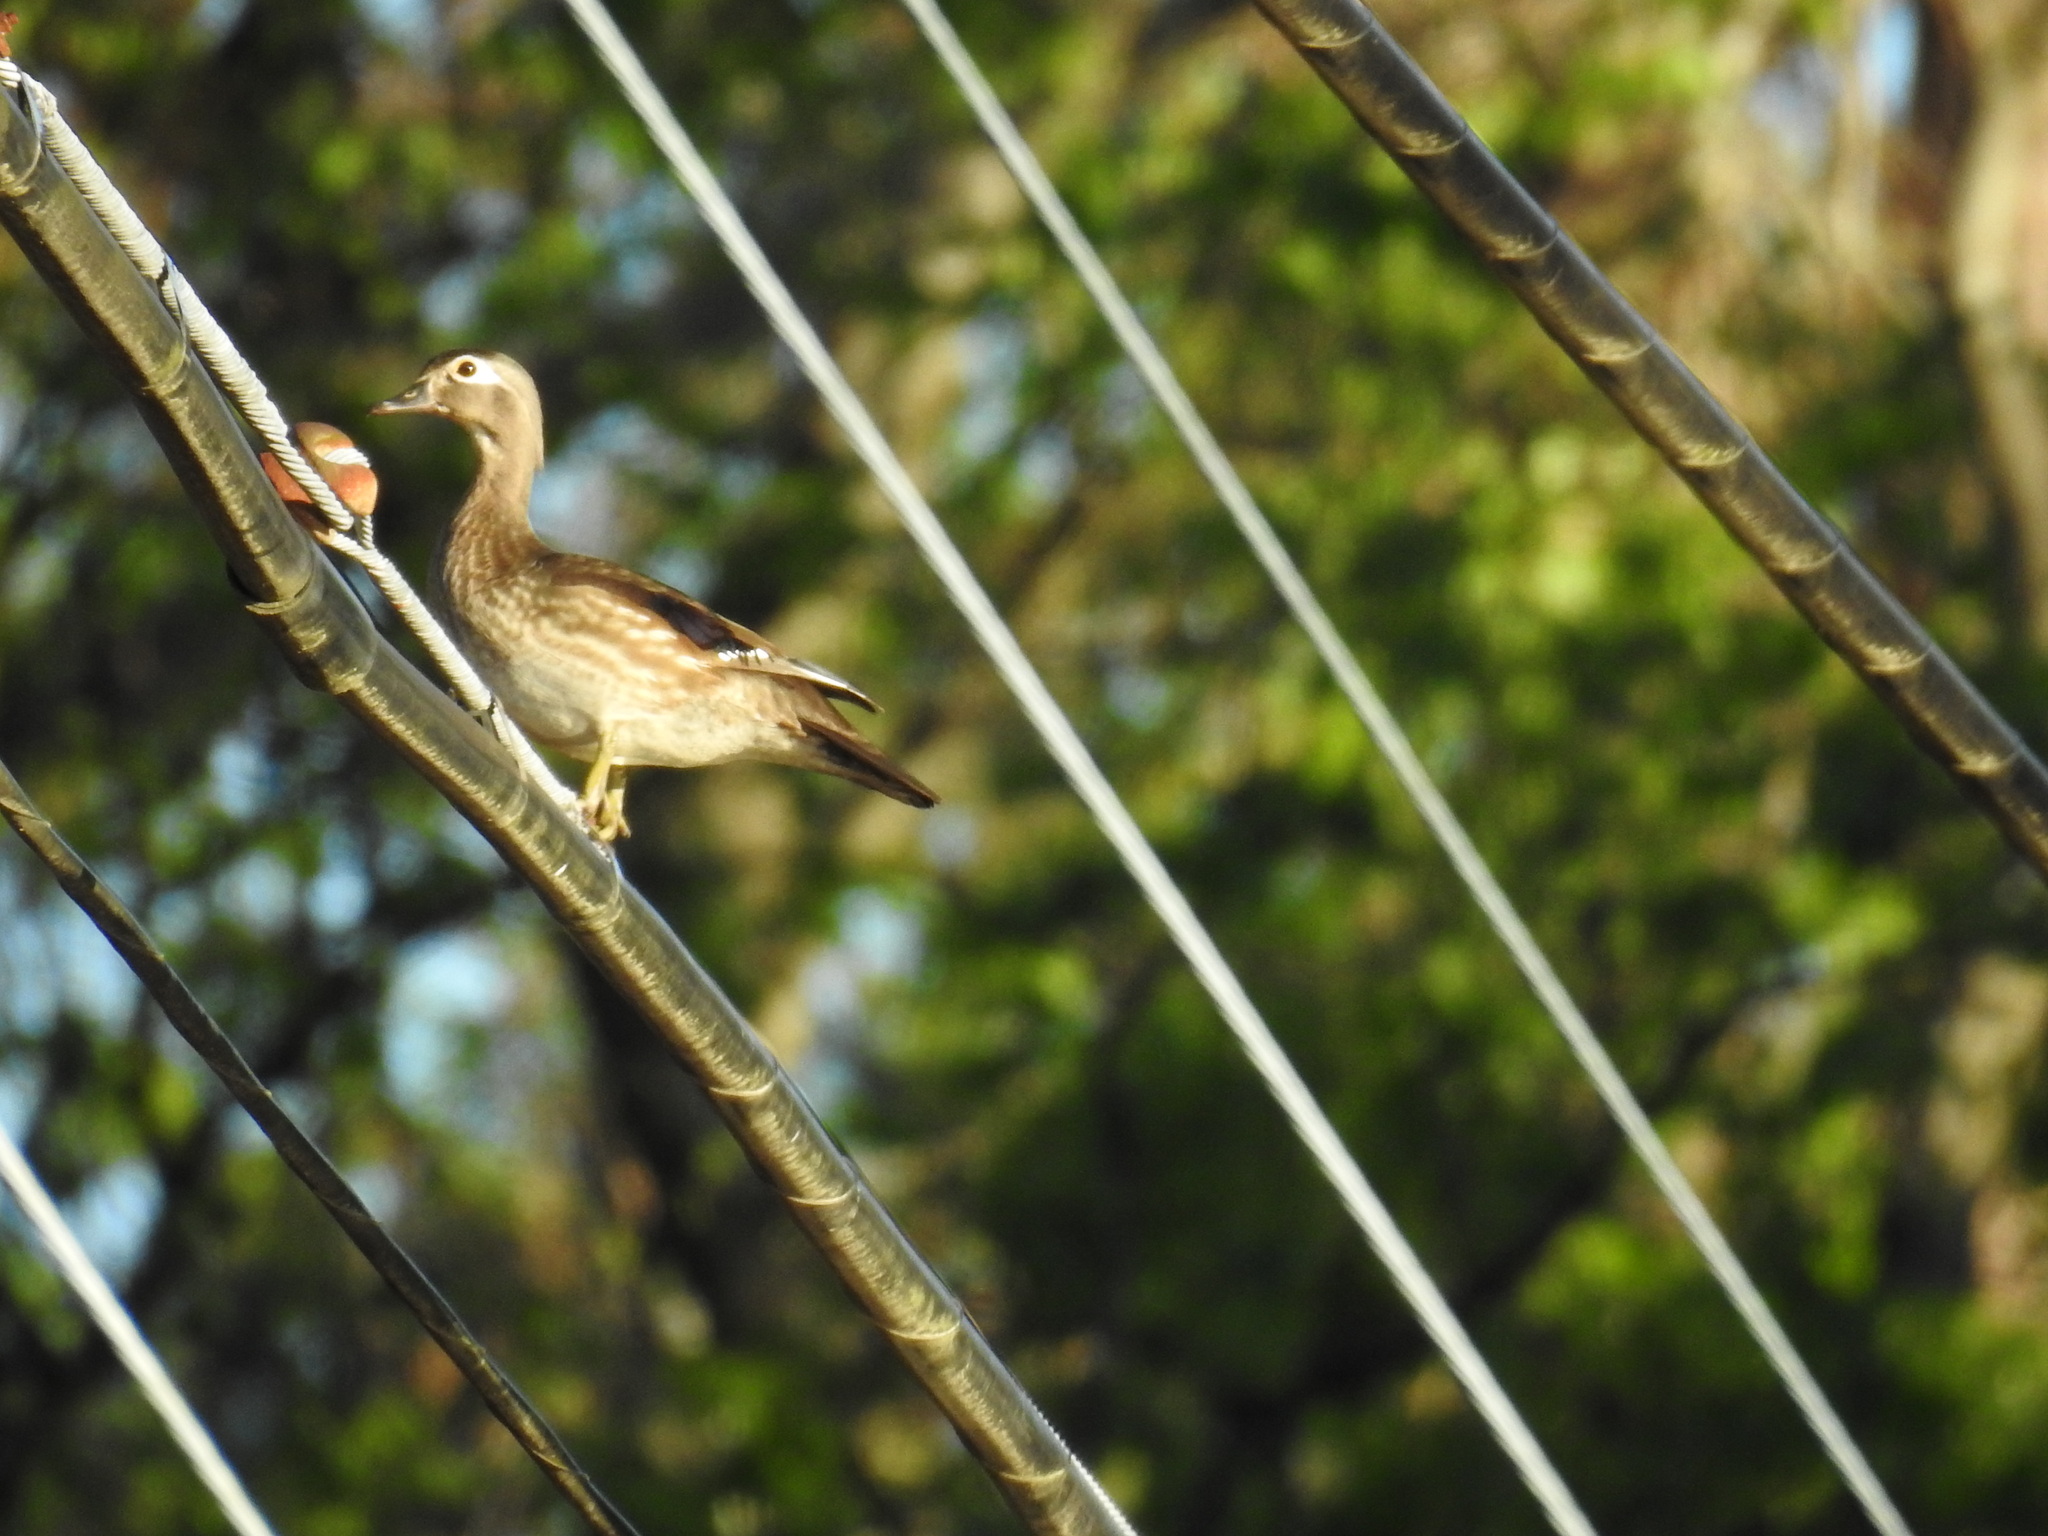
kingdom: Animalia
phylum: Chordata
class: Aves
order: Anseriformes
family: Anatidae
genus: Aix
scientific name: Aix sponsa
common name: Wood duck
